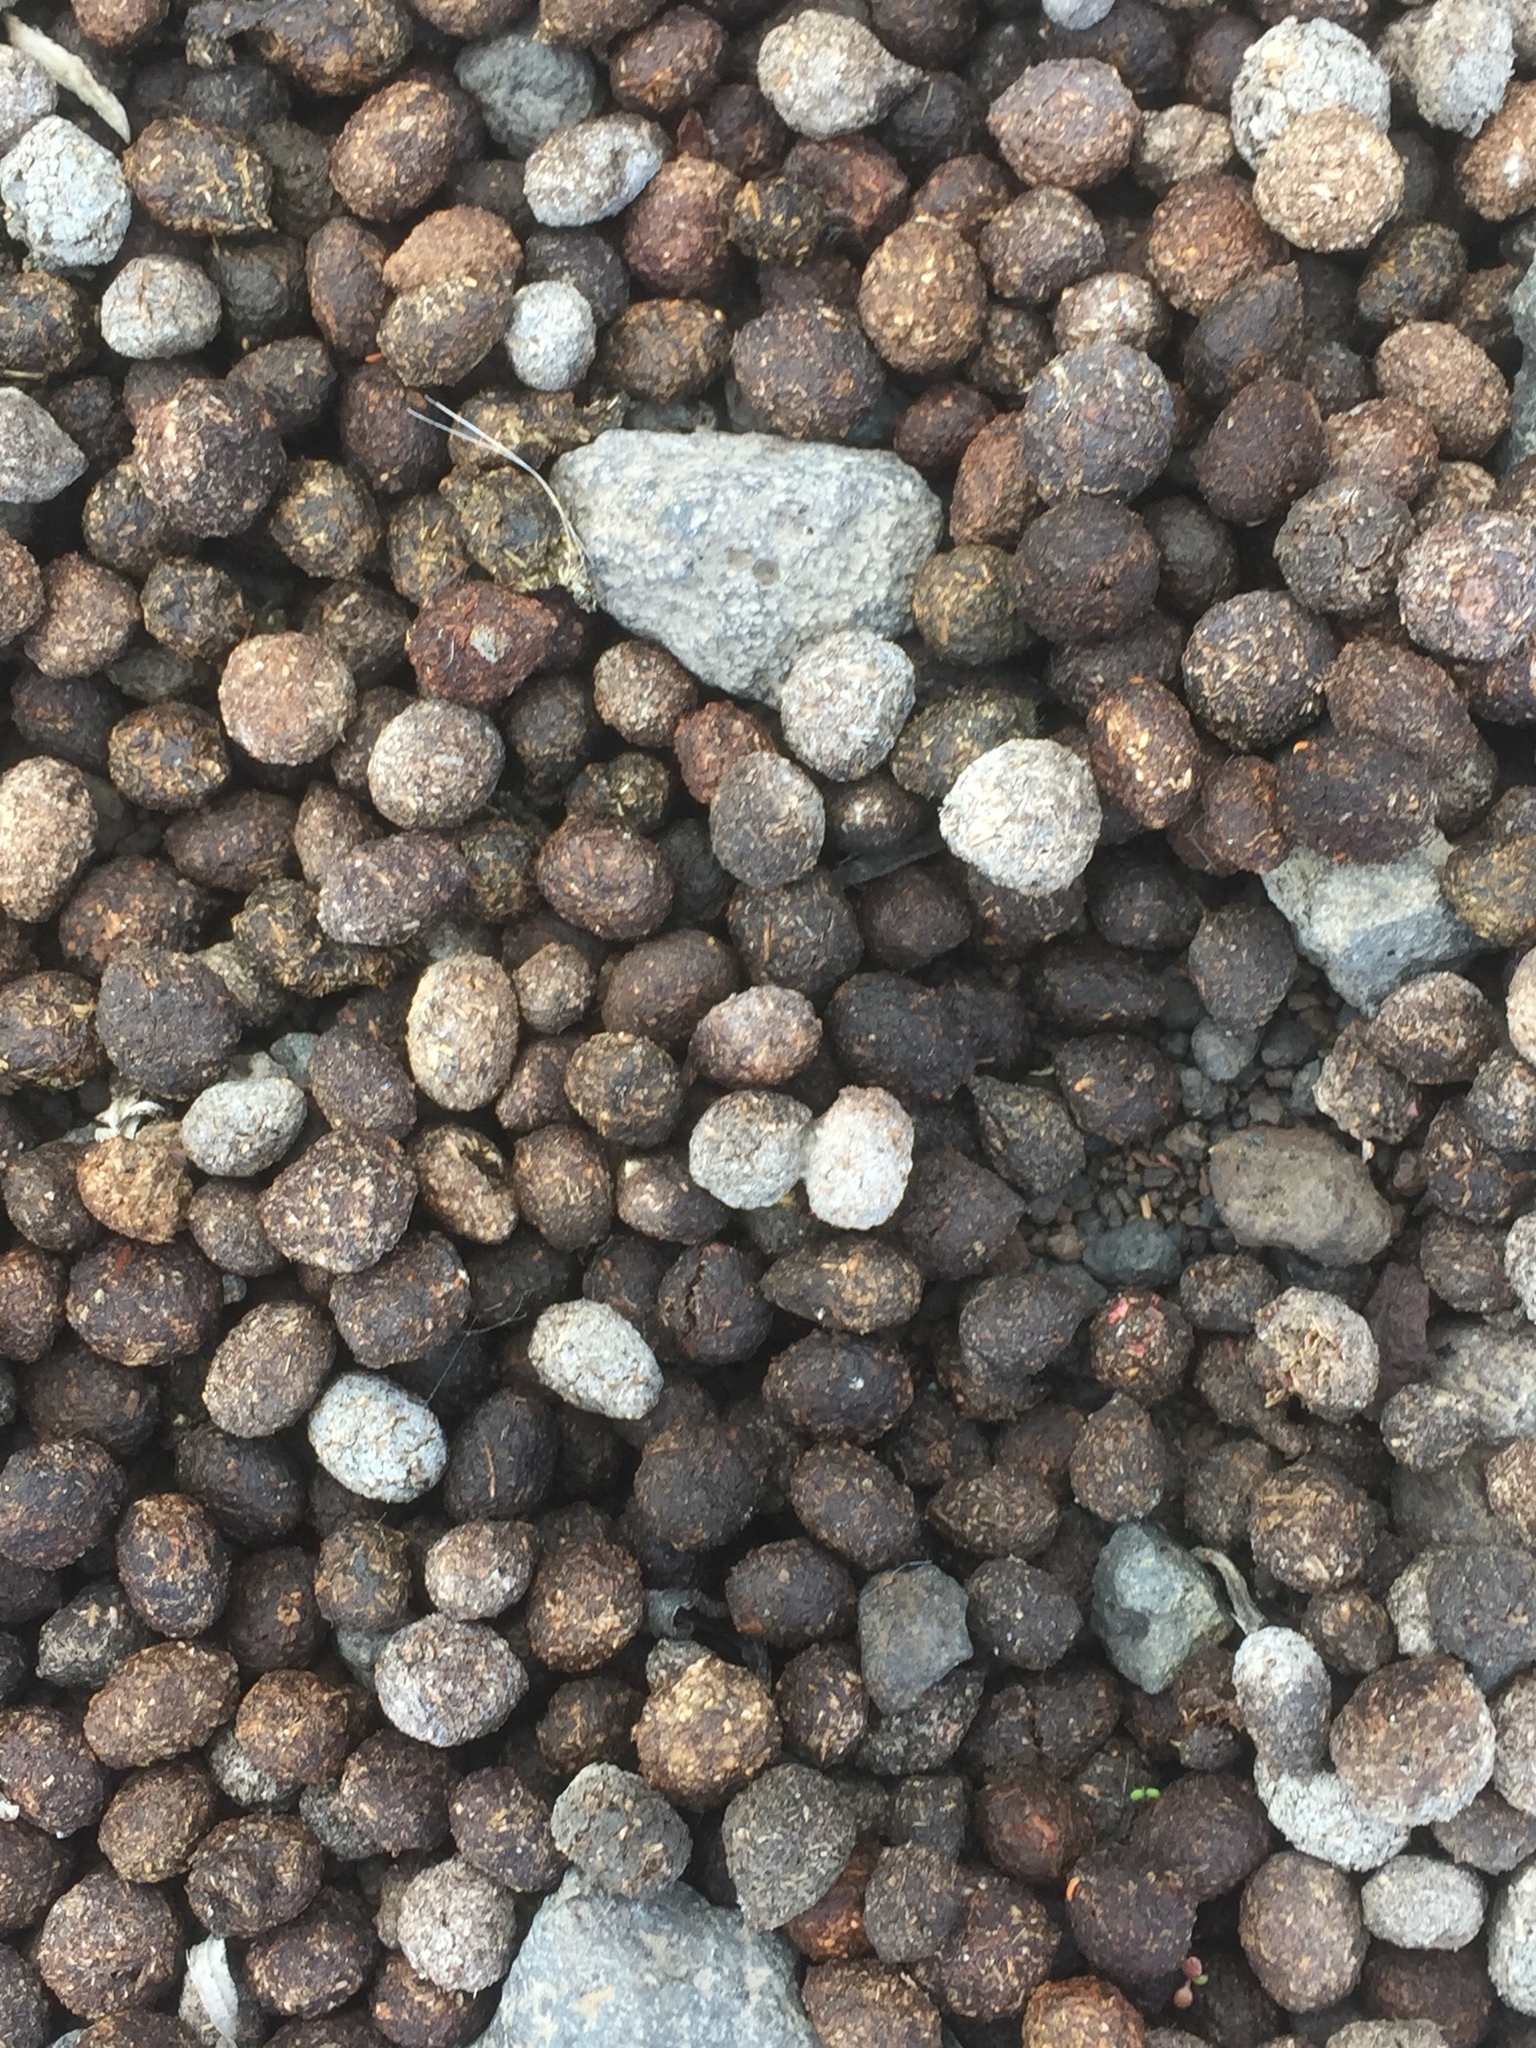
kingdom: Animalia
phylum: Chordata
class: Mammalia
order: Lagomorpha
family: Leporidae
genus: Oryctolagus
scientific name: Oryctolagus cuniculus
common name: European rabbit
